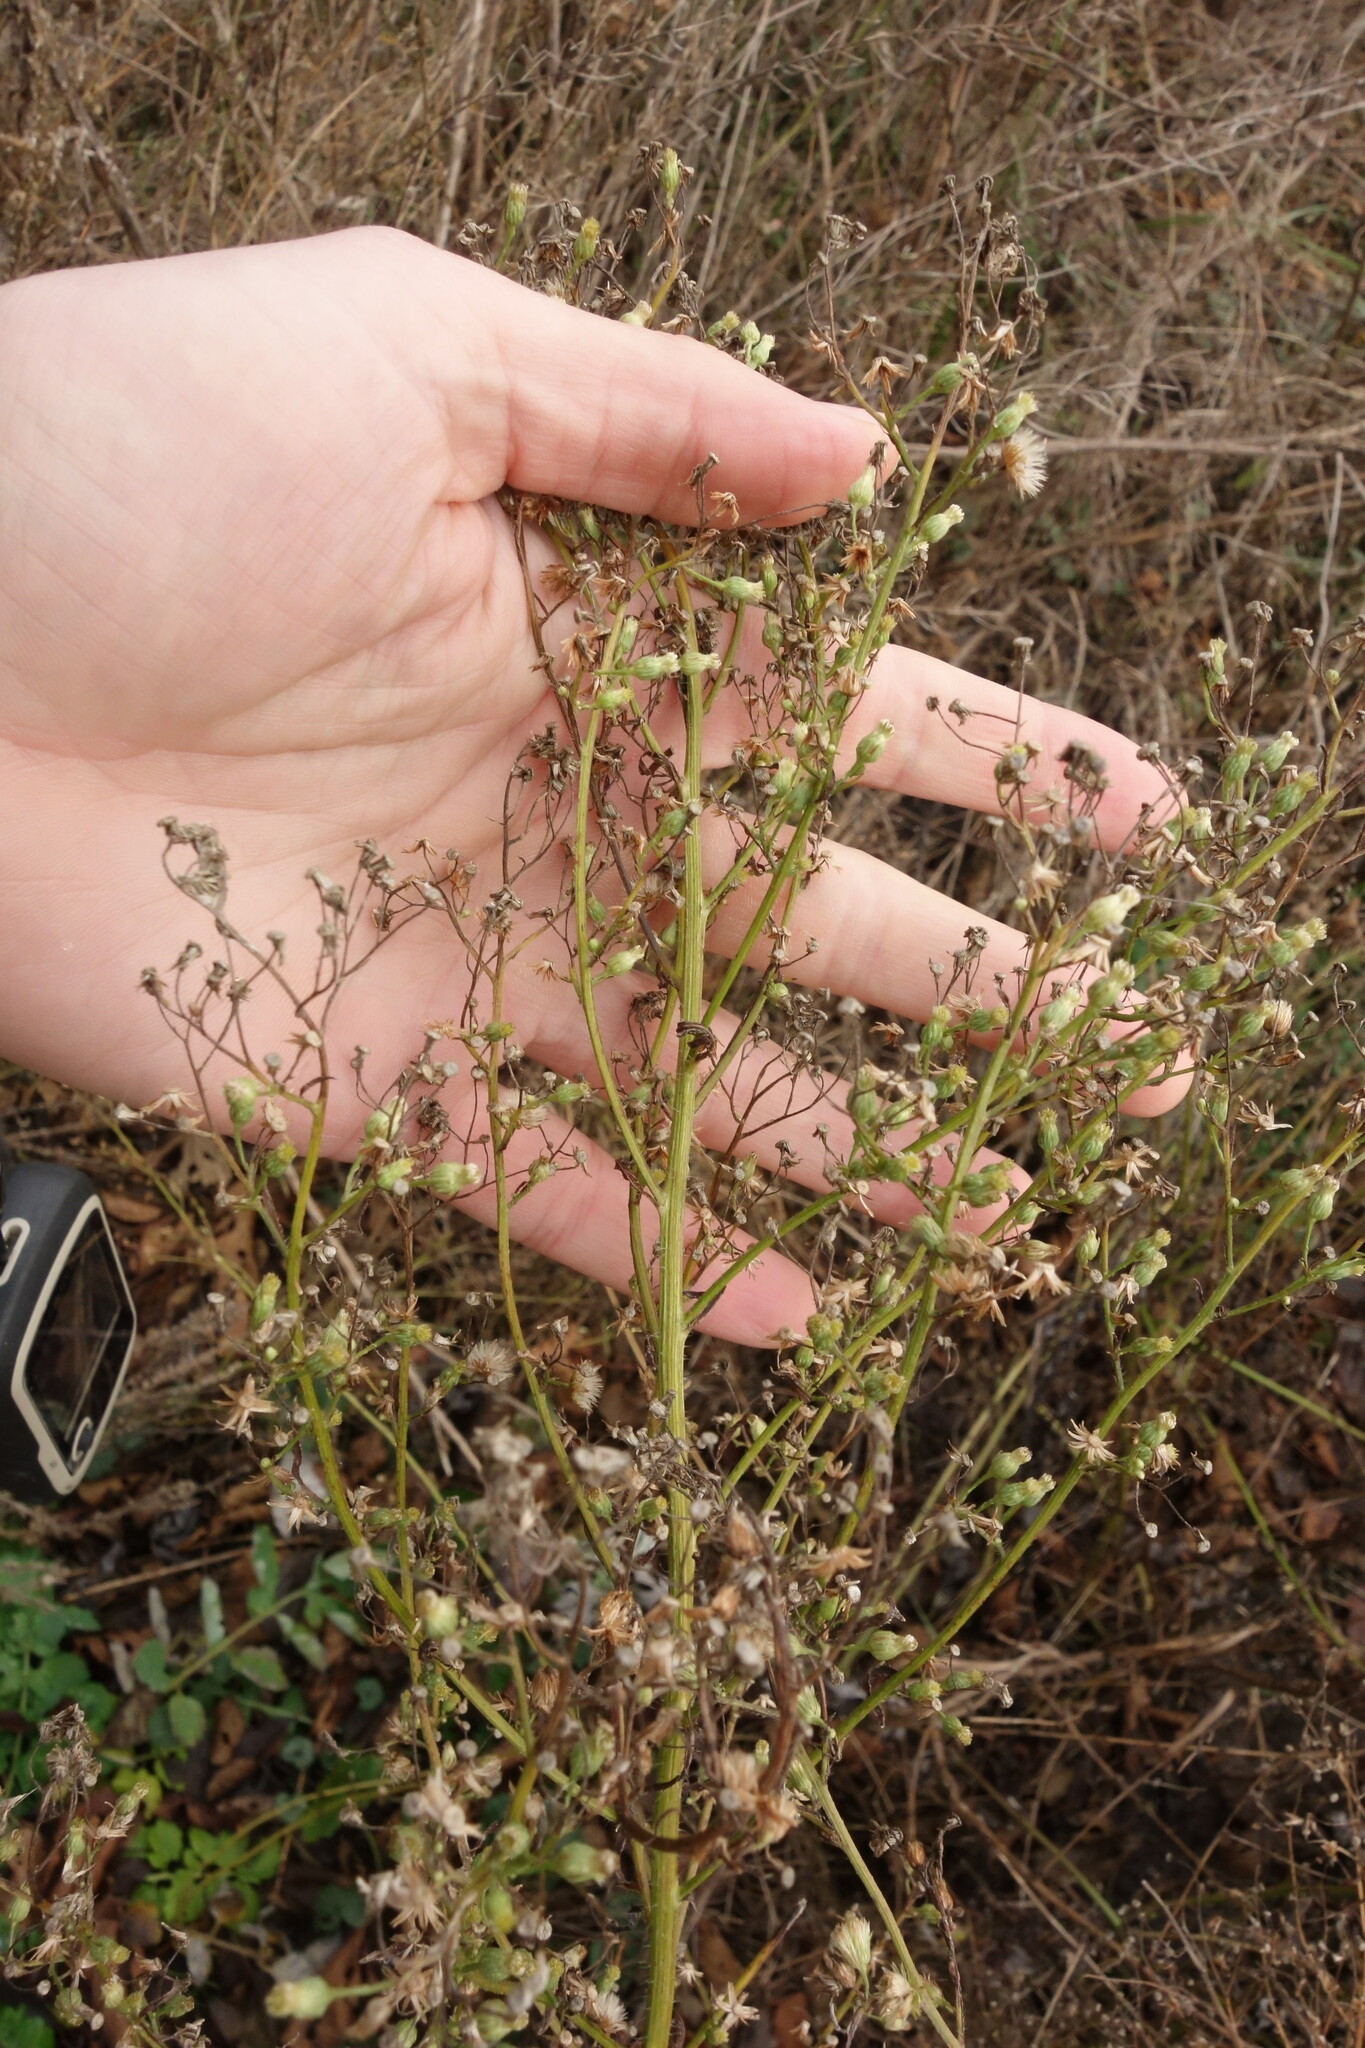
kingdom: Plantae
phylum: Tracheophyta
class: Magnoliopsida
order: Asterales
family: Asteraceae
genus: Erigeron
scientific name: Erigeron canadensis
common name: Canadian fleabane
